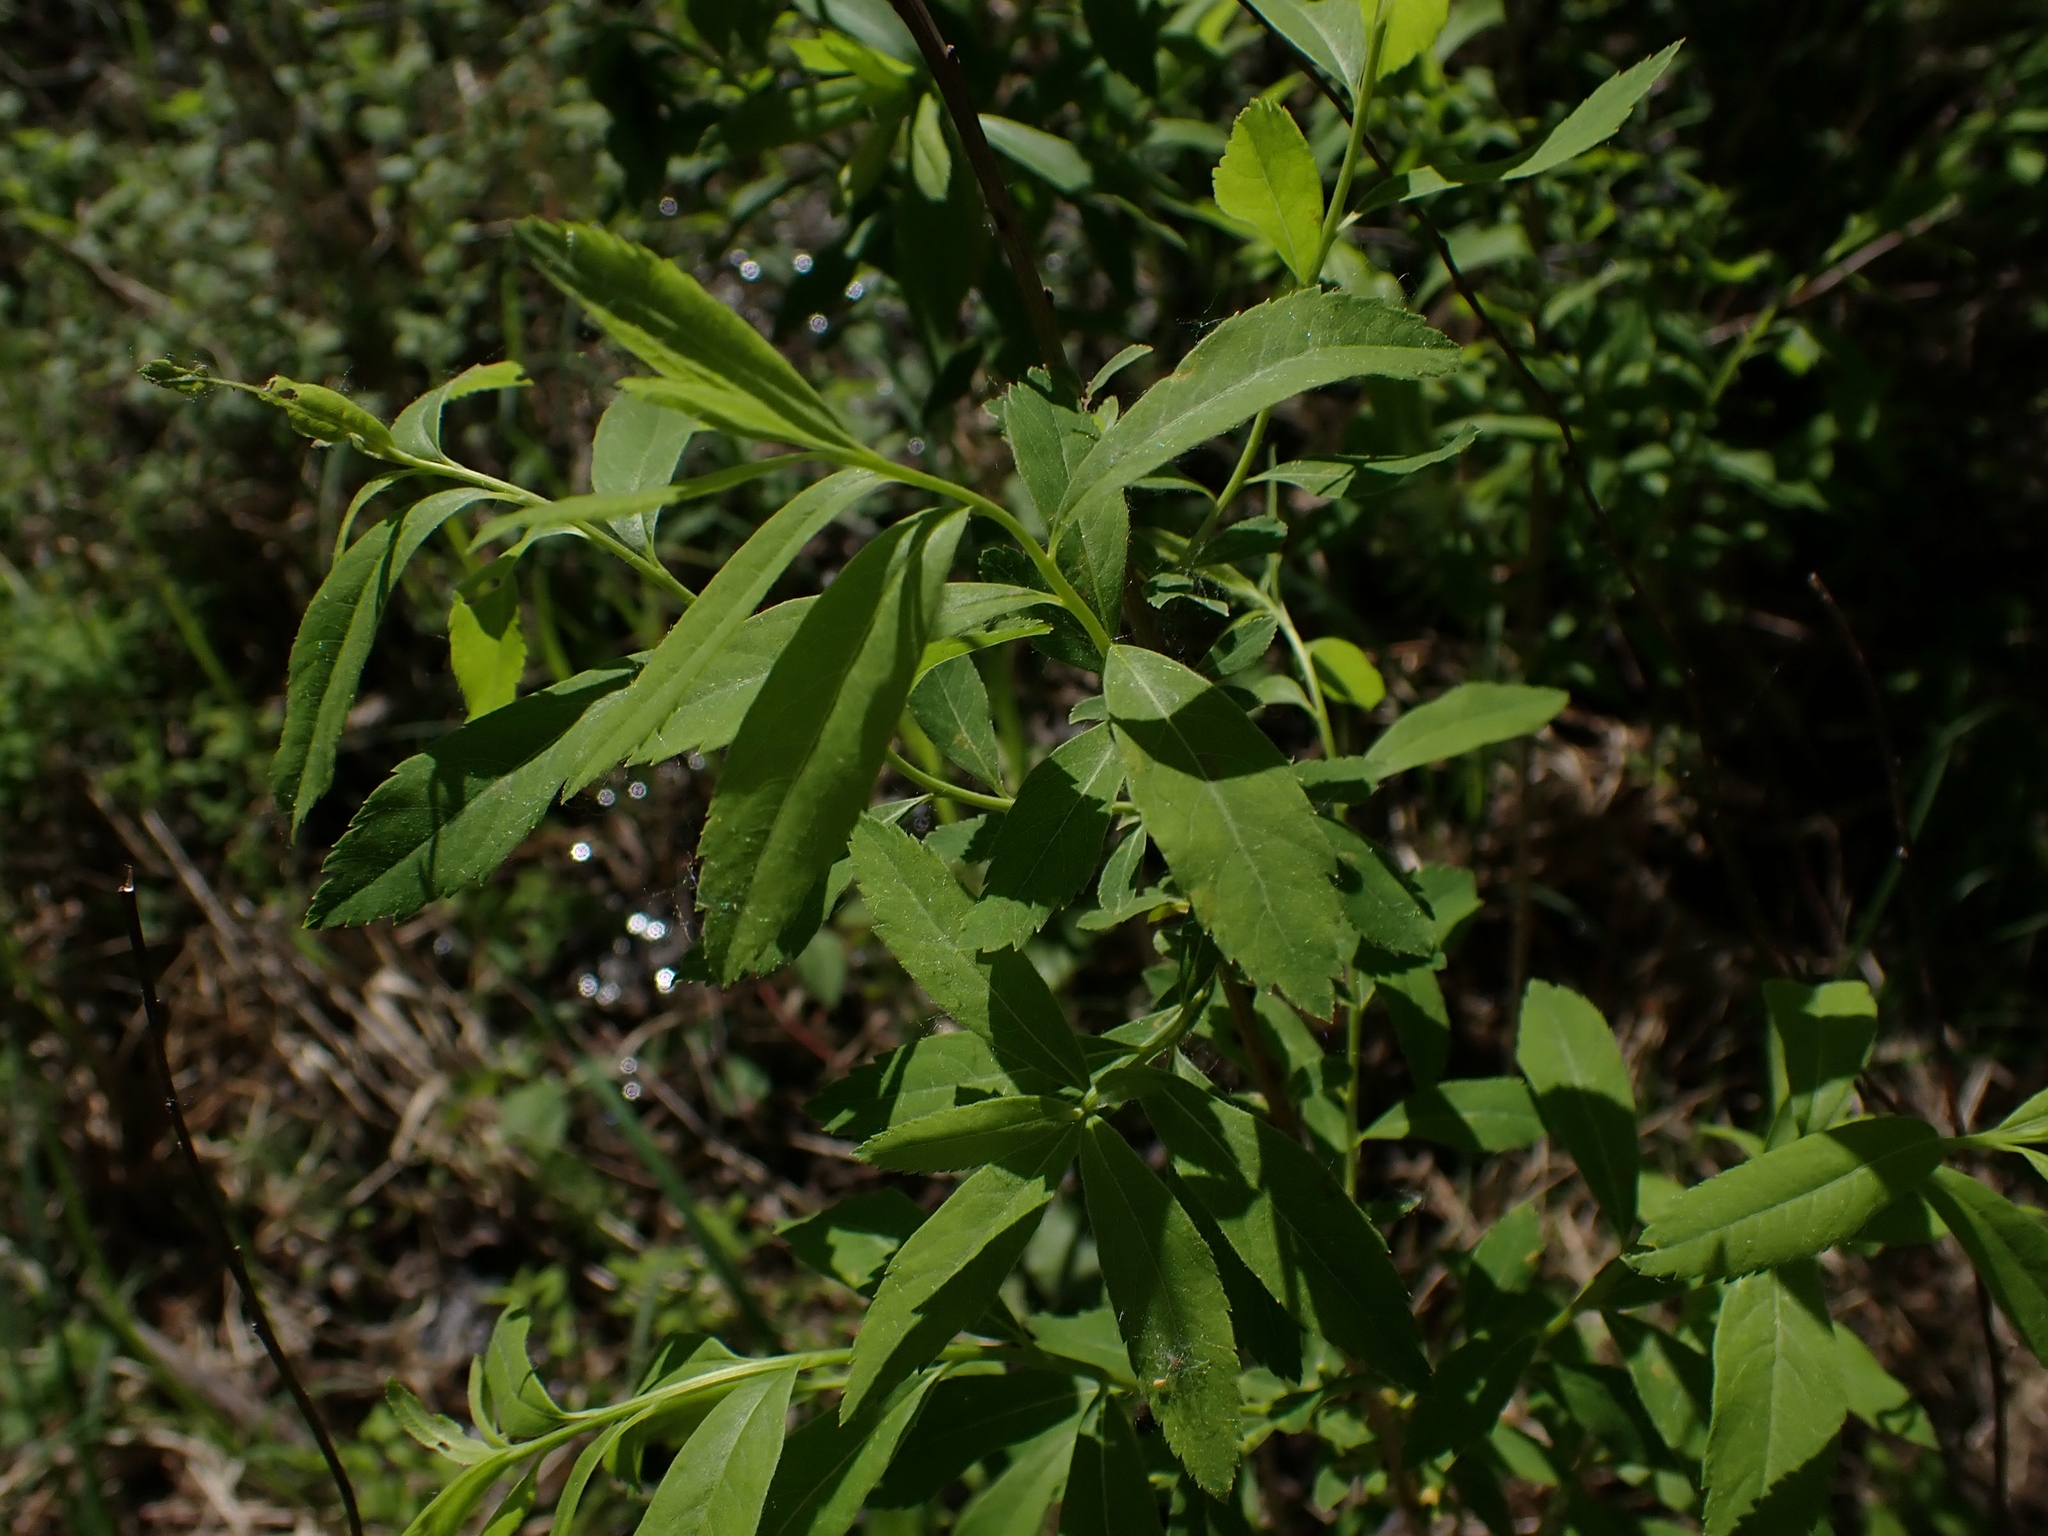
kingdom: Plantae
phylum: Tracheophyta
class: Magnoliopsida
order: Rosales
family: Rosaceae
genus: Spiraea
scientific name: Spiraea alba
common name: Pale bridewort
